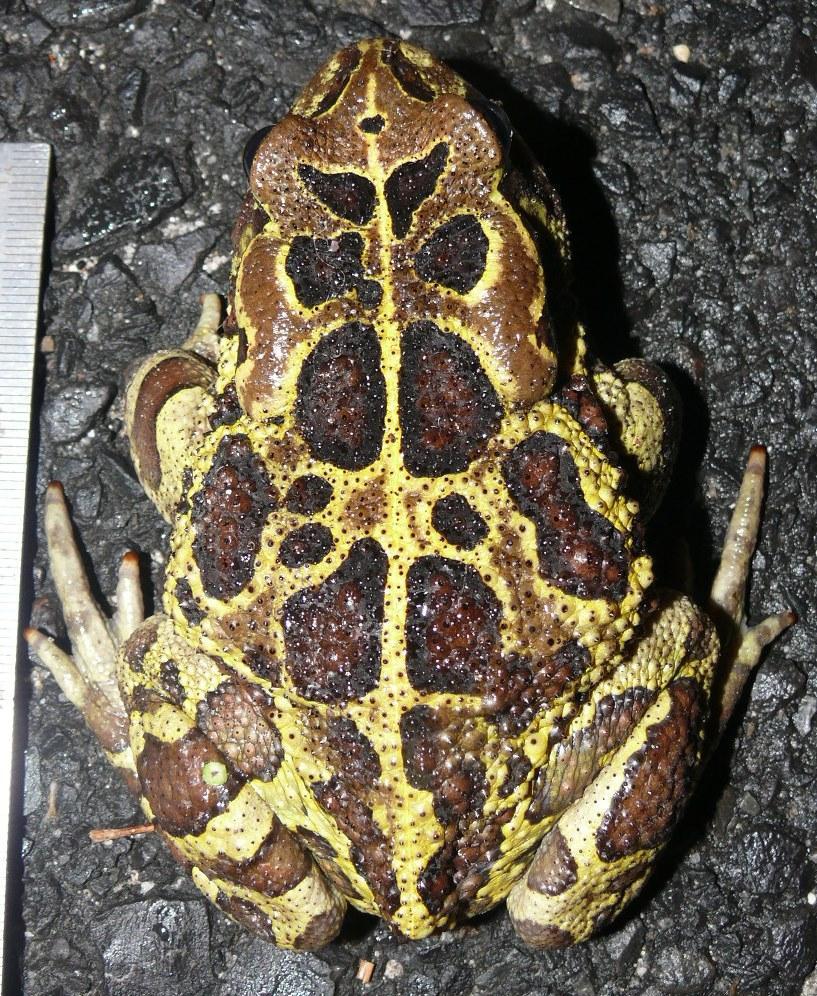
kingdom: Animalia
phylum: Chordata
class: Amphibia
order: Anura
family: Bufonidae
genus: Sclerophrys
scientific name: Sclerophrys pantherina
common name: Panther toad
